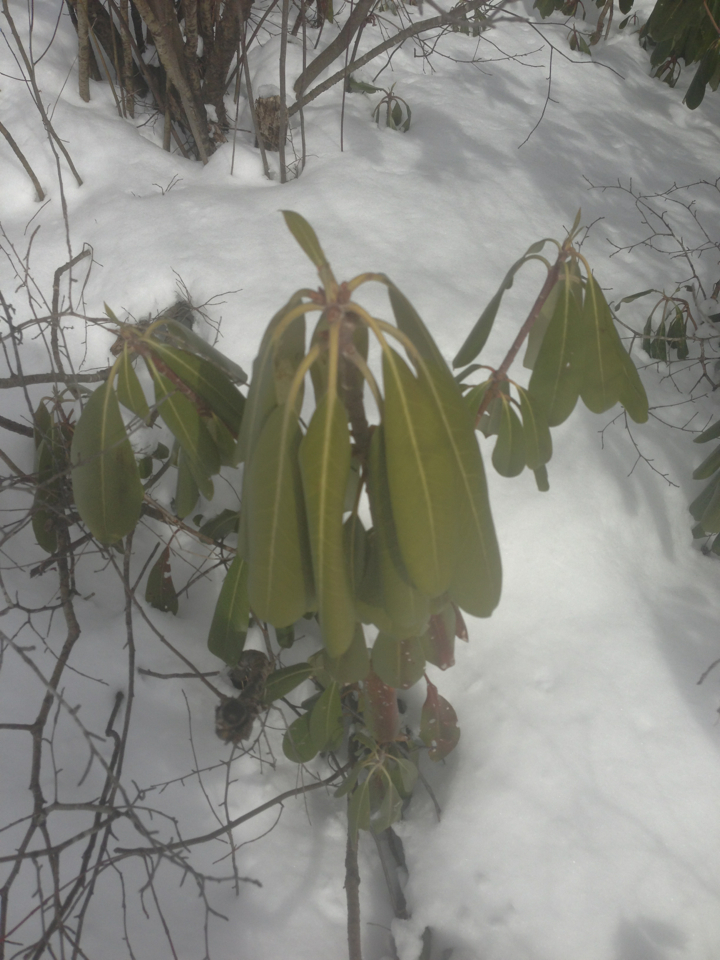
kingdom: Plantae
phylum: Tracheophyta
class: Magnoliopsida
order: Ericales
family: Ericaceae
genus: Rhododendron
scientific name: Rhododendron maximum
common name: Great rhododendron
